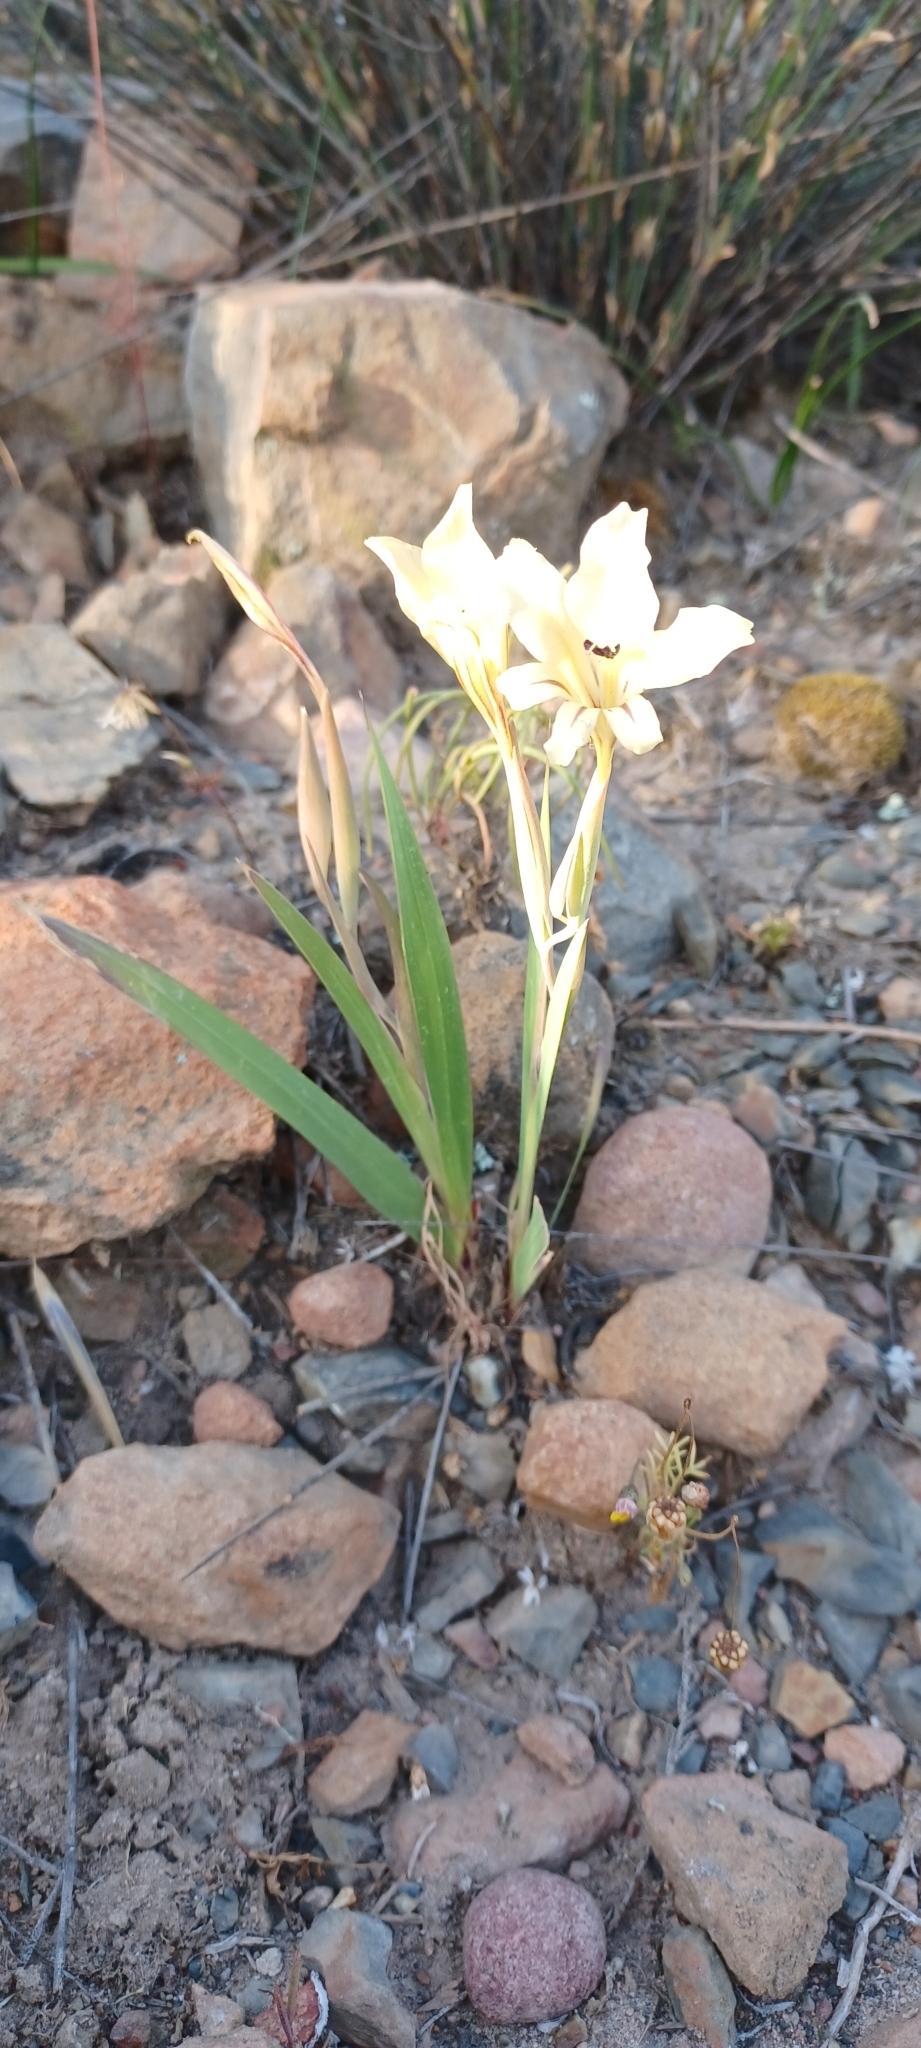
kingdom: Plantae
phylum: Tracheophyta
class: Liliopsida
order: Asparagales
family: Iridaceae
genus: Gladiolus
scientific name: Gladiolus floribundus
